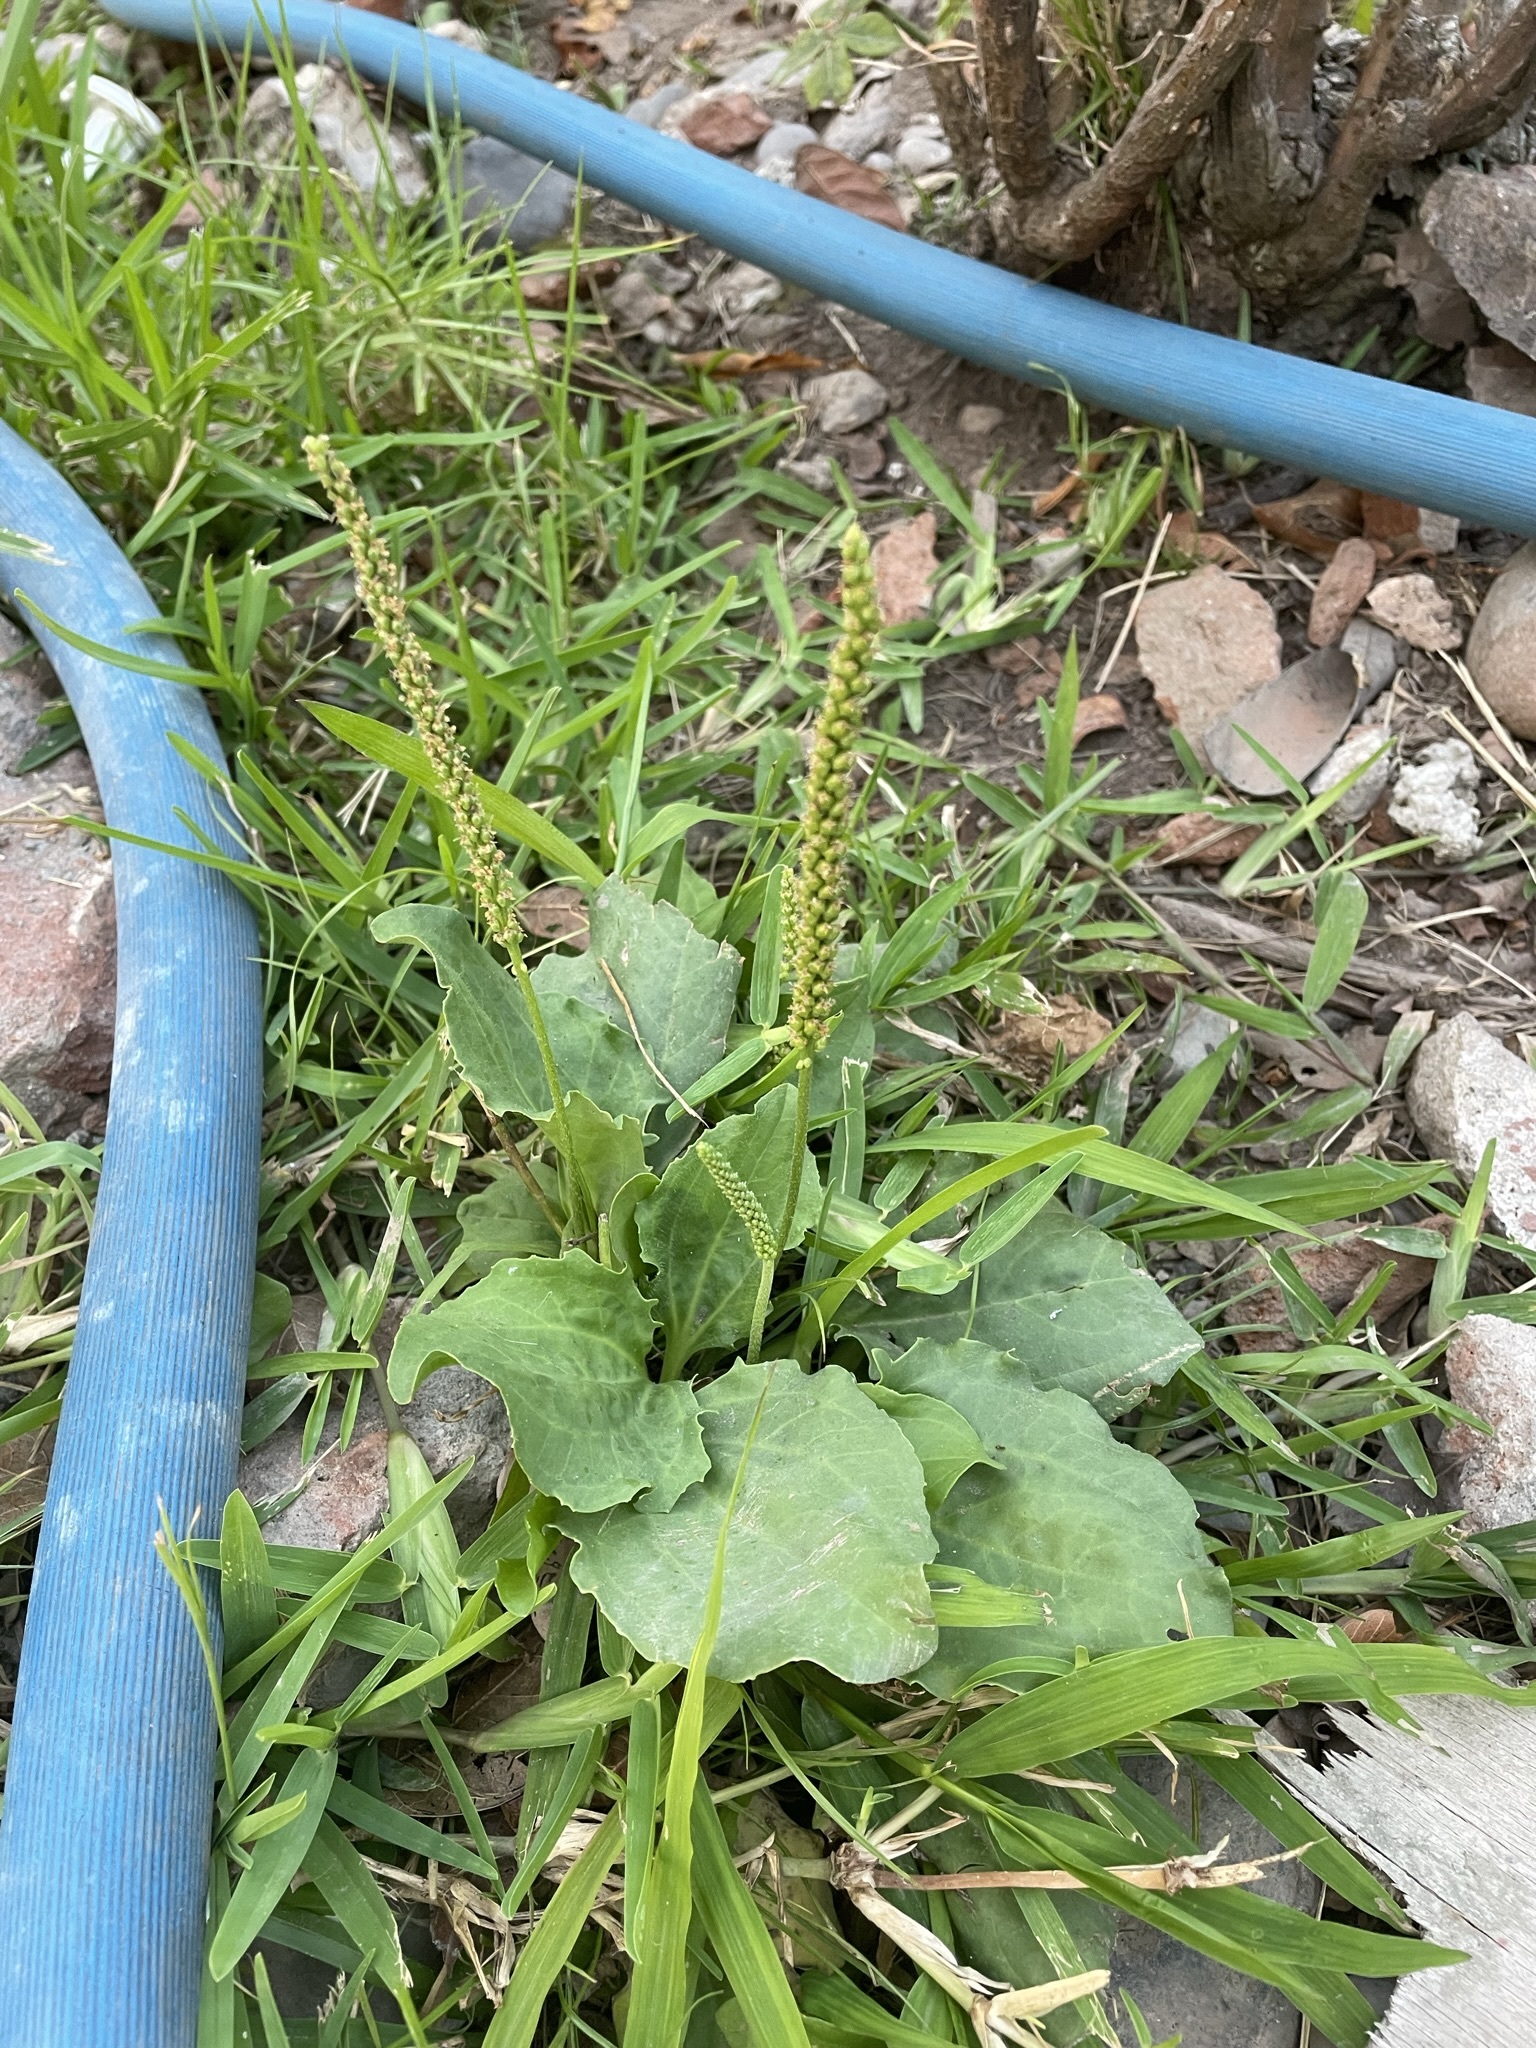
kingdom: Plantae
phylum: Tracheophyta
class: Magnoliopsida
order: Lamiales
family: Plantaginaceae
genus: Plantago
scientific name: Plantago major
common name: Common plantain
